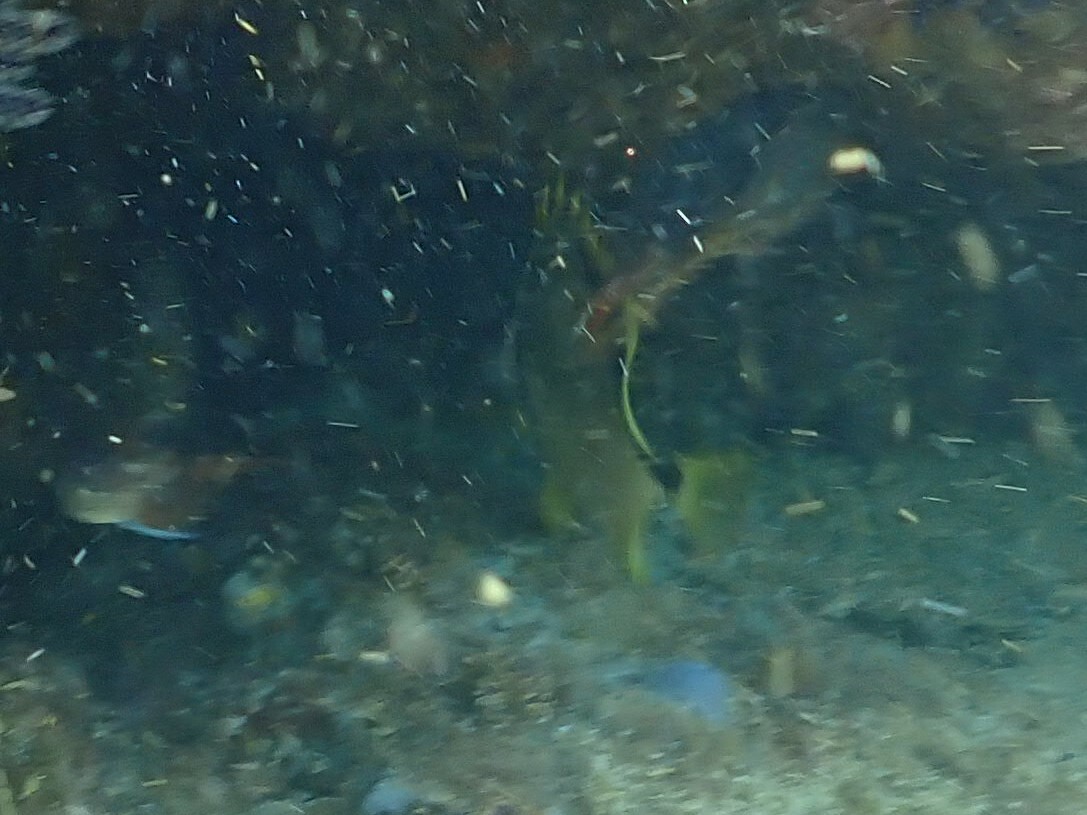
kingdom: Animalia
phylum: Chordata
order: Perciformes
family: Chaetodontidae
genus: Johnrandallia
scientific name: Johnrandallia nigrirostris
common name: Barberfish
